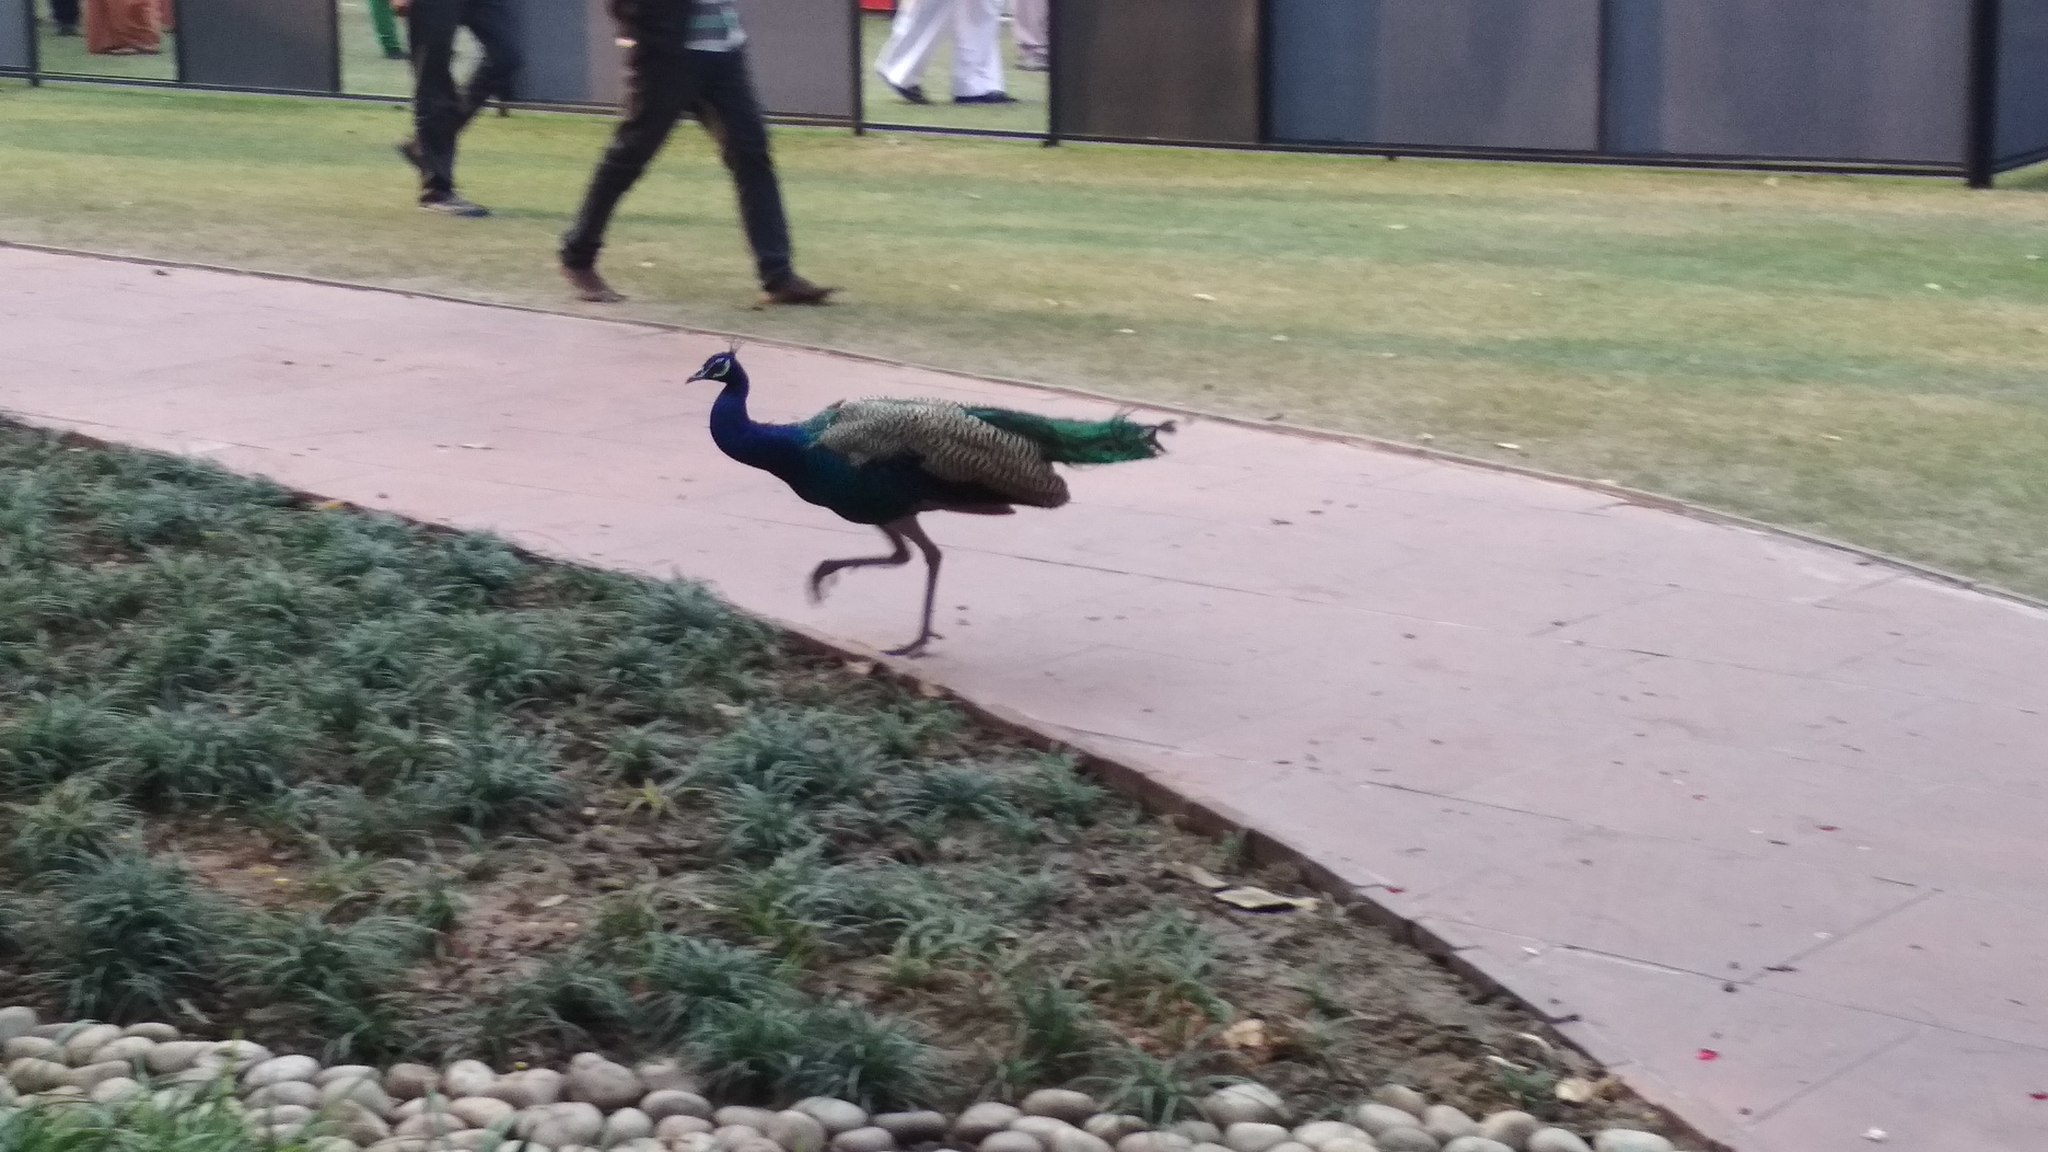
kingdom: Animalia
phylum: Chordata
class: Aves
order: Galliformes
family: Phasianidae
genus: Pavo
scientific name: Pavo cristatus
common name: Indian peafowl
